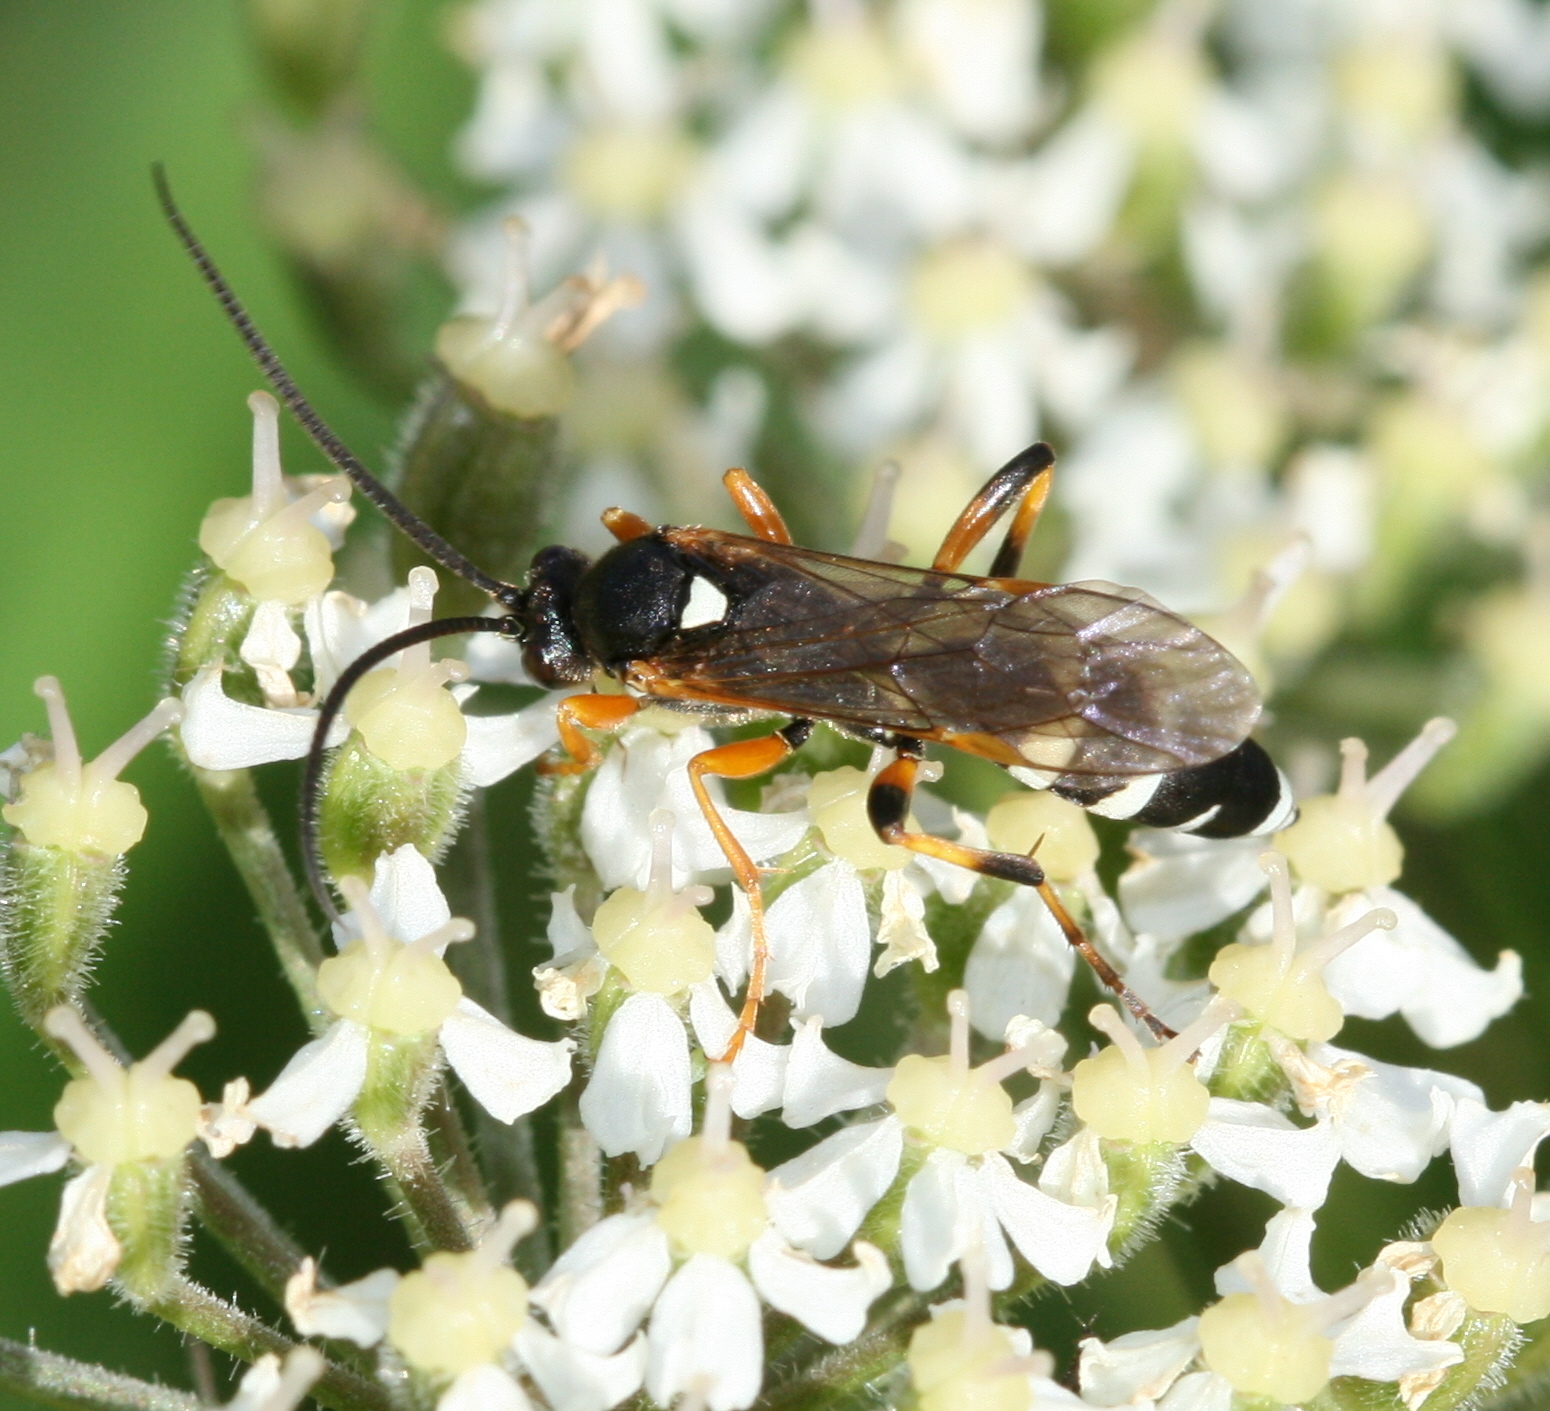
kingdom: Animalia
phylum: Arthropoda
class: Insecta
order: Hymenoptera
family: Ichneumonidae
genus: Ichneumon
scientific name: Ichneumon sarcitorius
